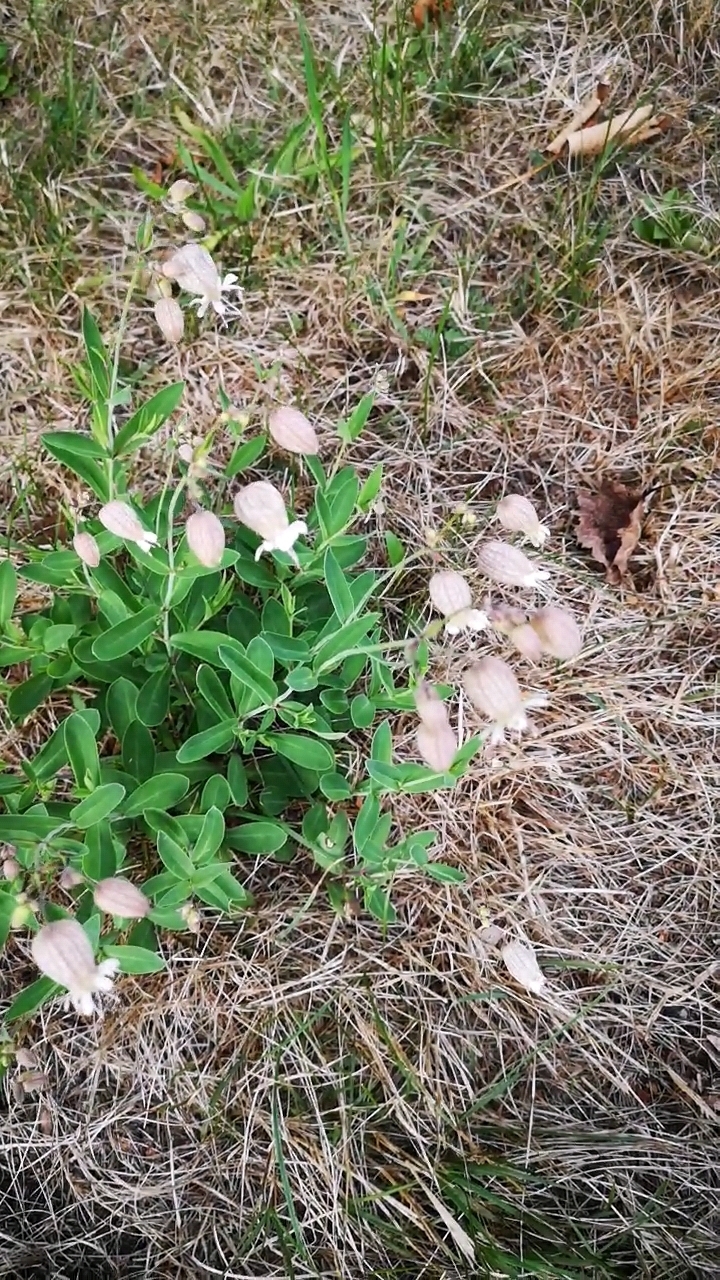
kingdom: Plantae
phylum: Tracheophyta
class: Magnoliopsida
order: Caryophyllales
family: Caryophyllaceae
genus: Silene
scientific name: Silene vulgaris
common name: Bladder campion
